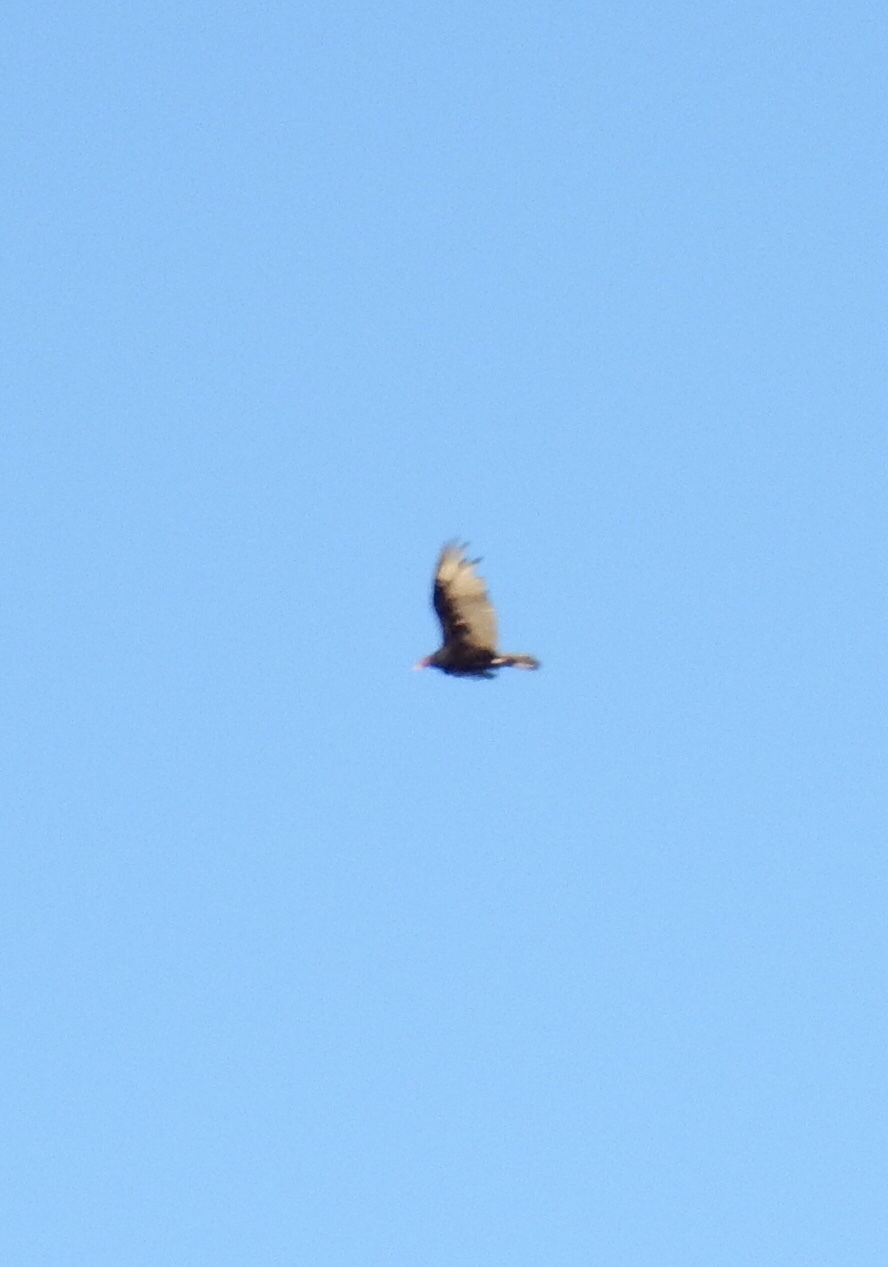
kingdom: Animalia
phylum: Chordata
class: Aves
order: Accipitriformes
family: Cathartidae
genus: Cathartes
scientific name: Cathartes aura
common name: Turkey vulture
